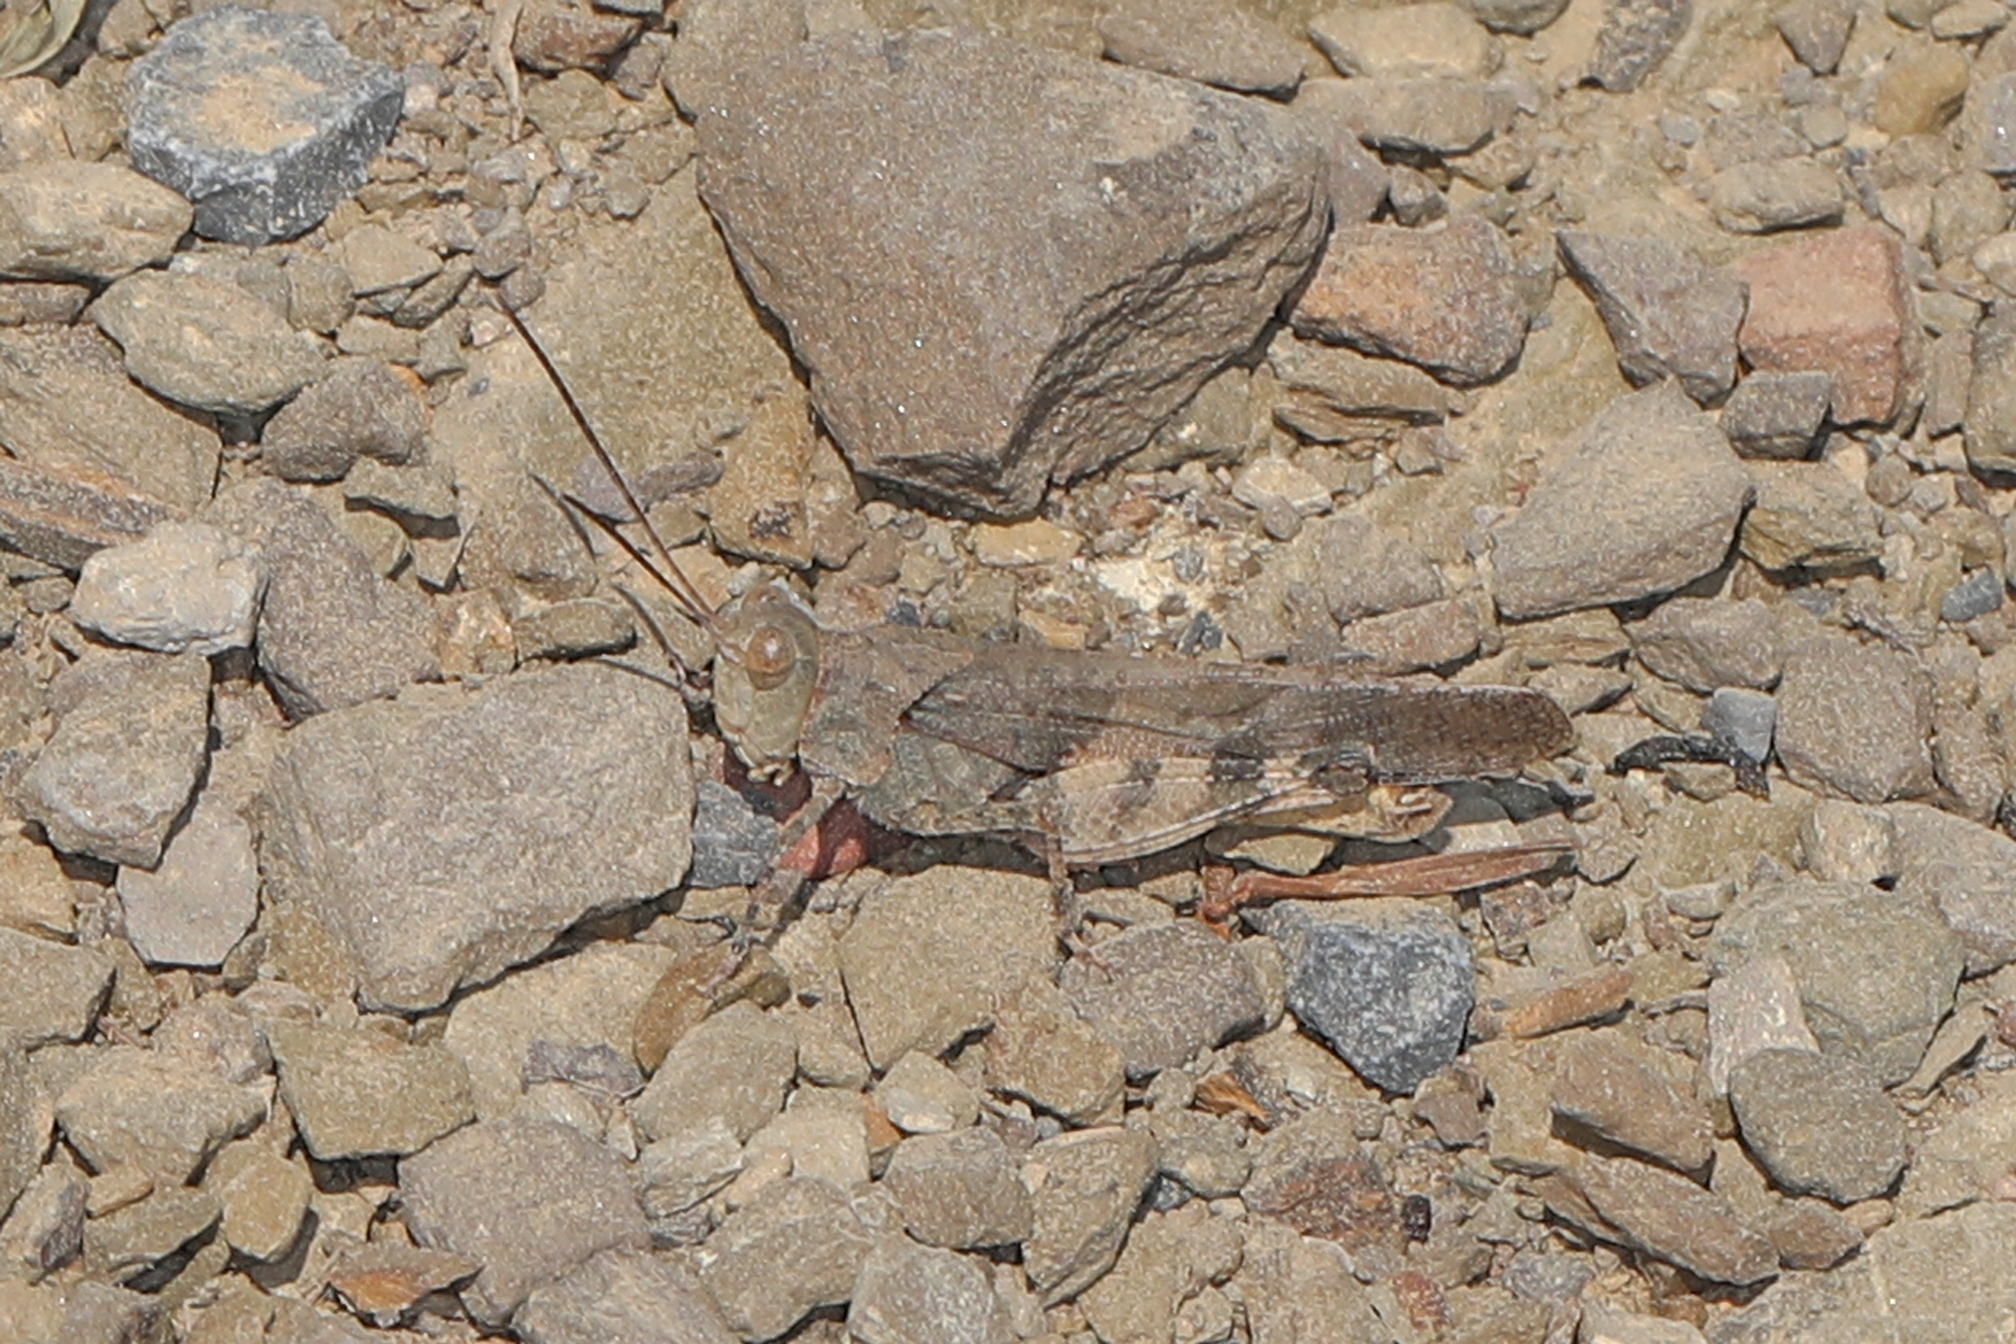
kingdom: Animalia
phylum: Arthropoda
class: Insecta
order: Orthoptera
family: Acrididae
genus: Spharagemon
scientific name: Spharagemon saxatile
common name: Ledge grasshopper
